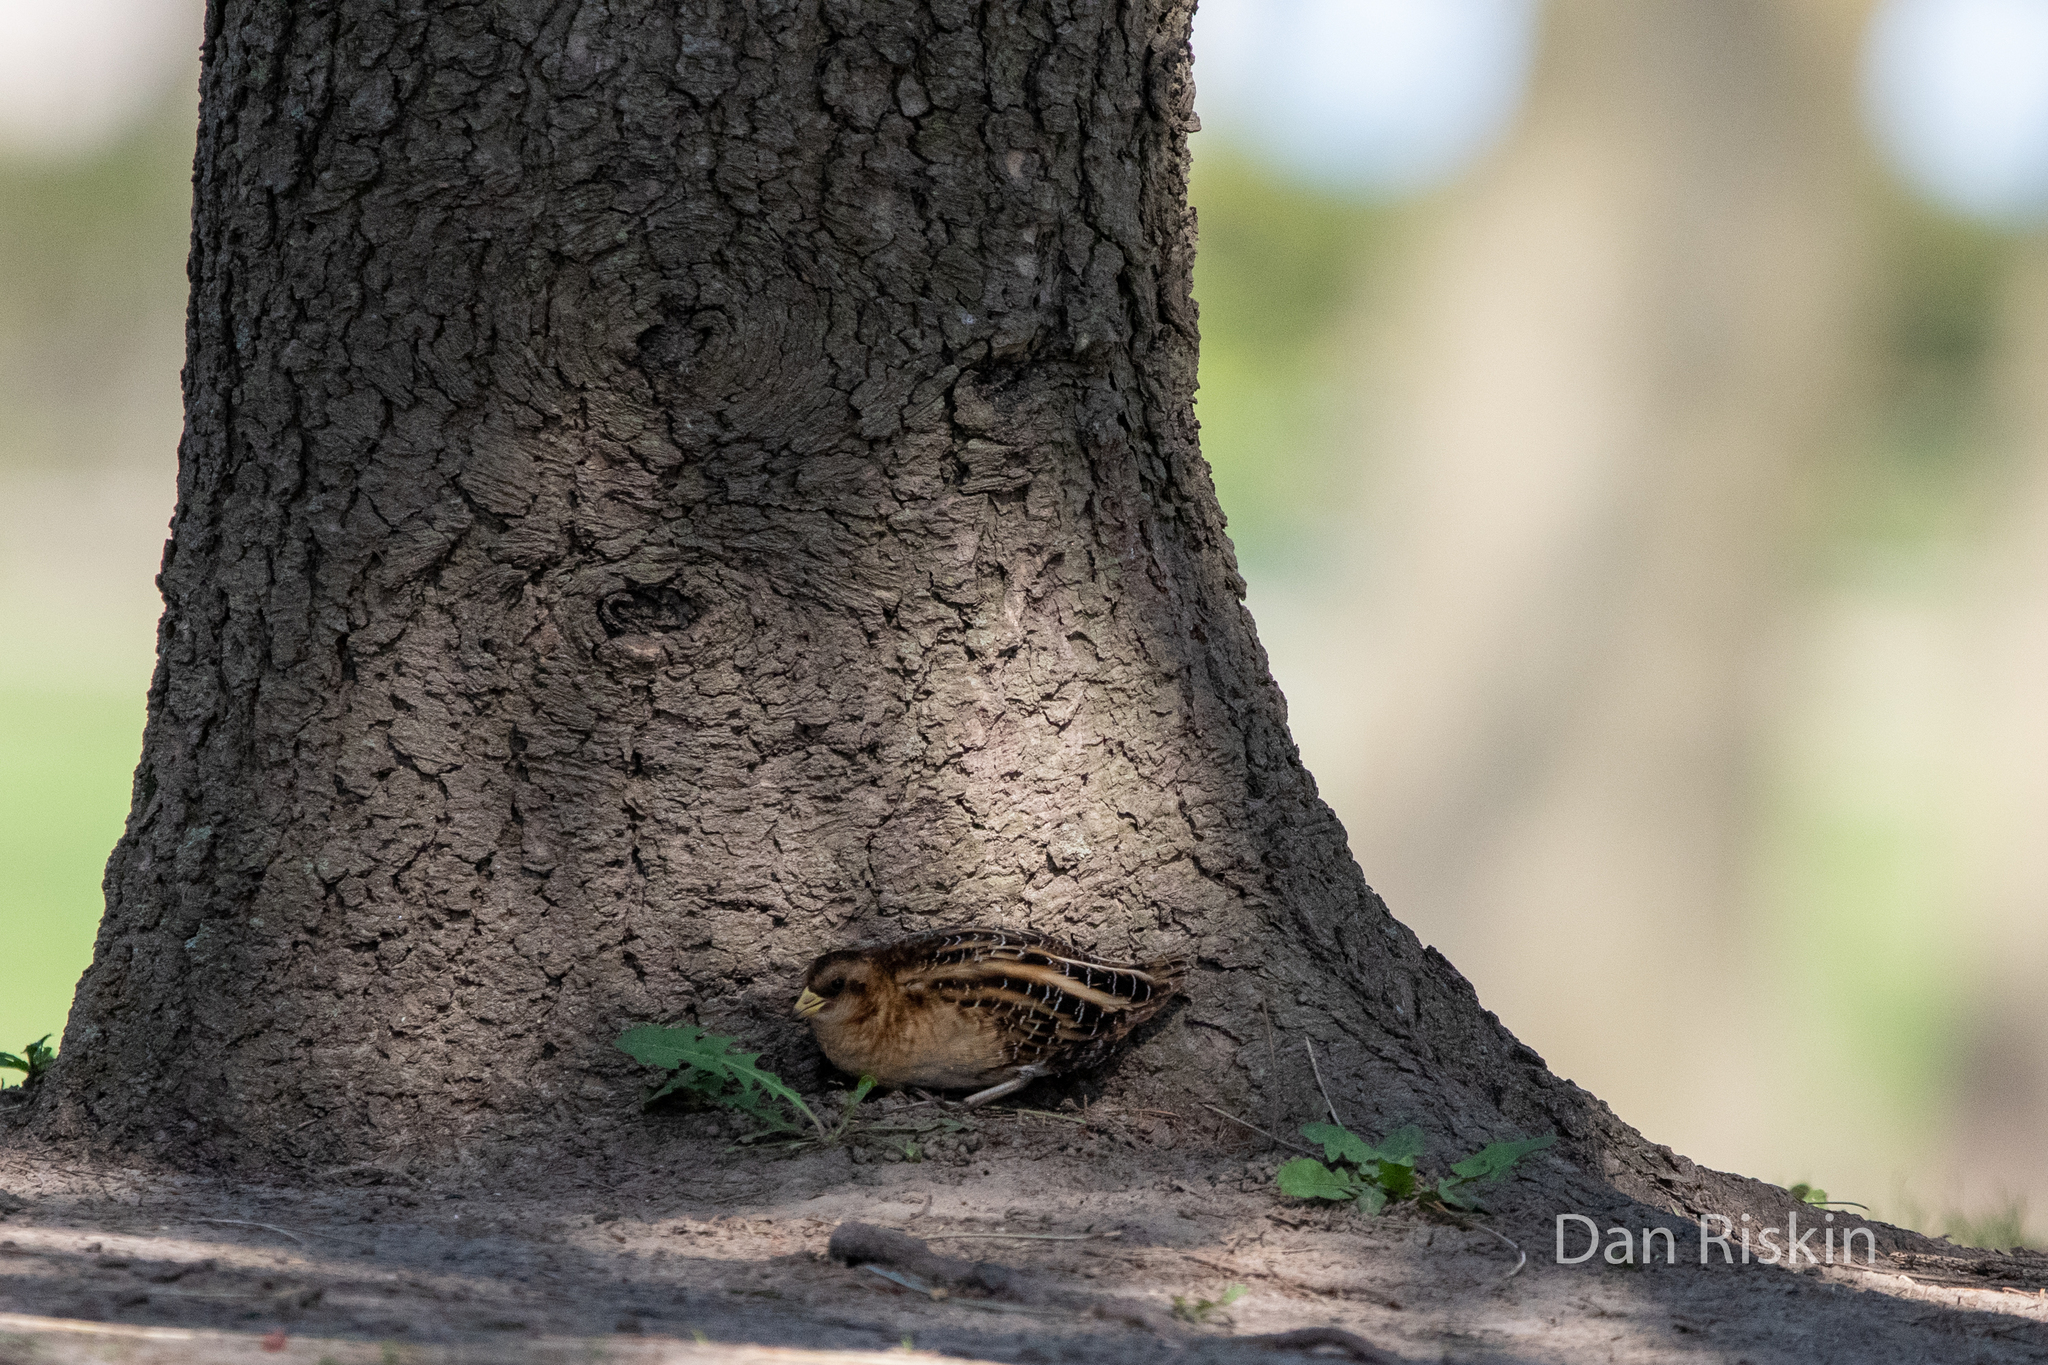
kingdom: Animalia
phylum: Chordata
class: Aves
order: Gruiformes
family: Rallidae
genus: Coturnicops
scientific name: Coturnicops noveboracensis
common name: Yellow rail
